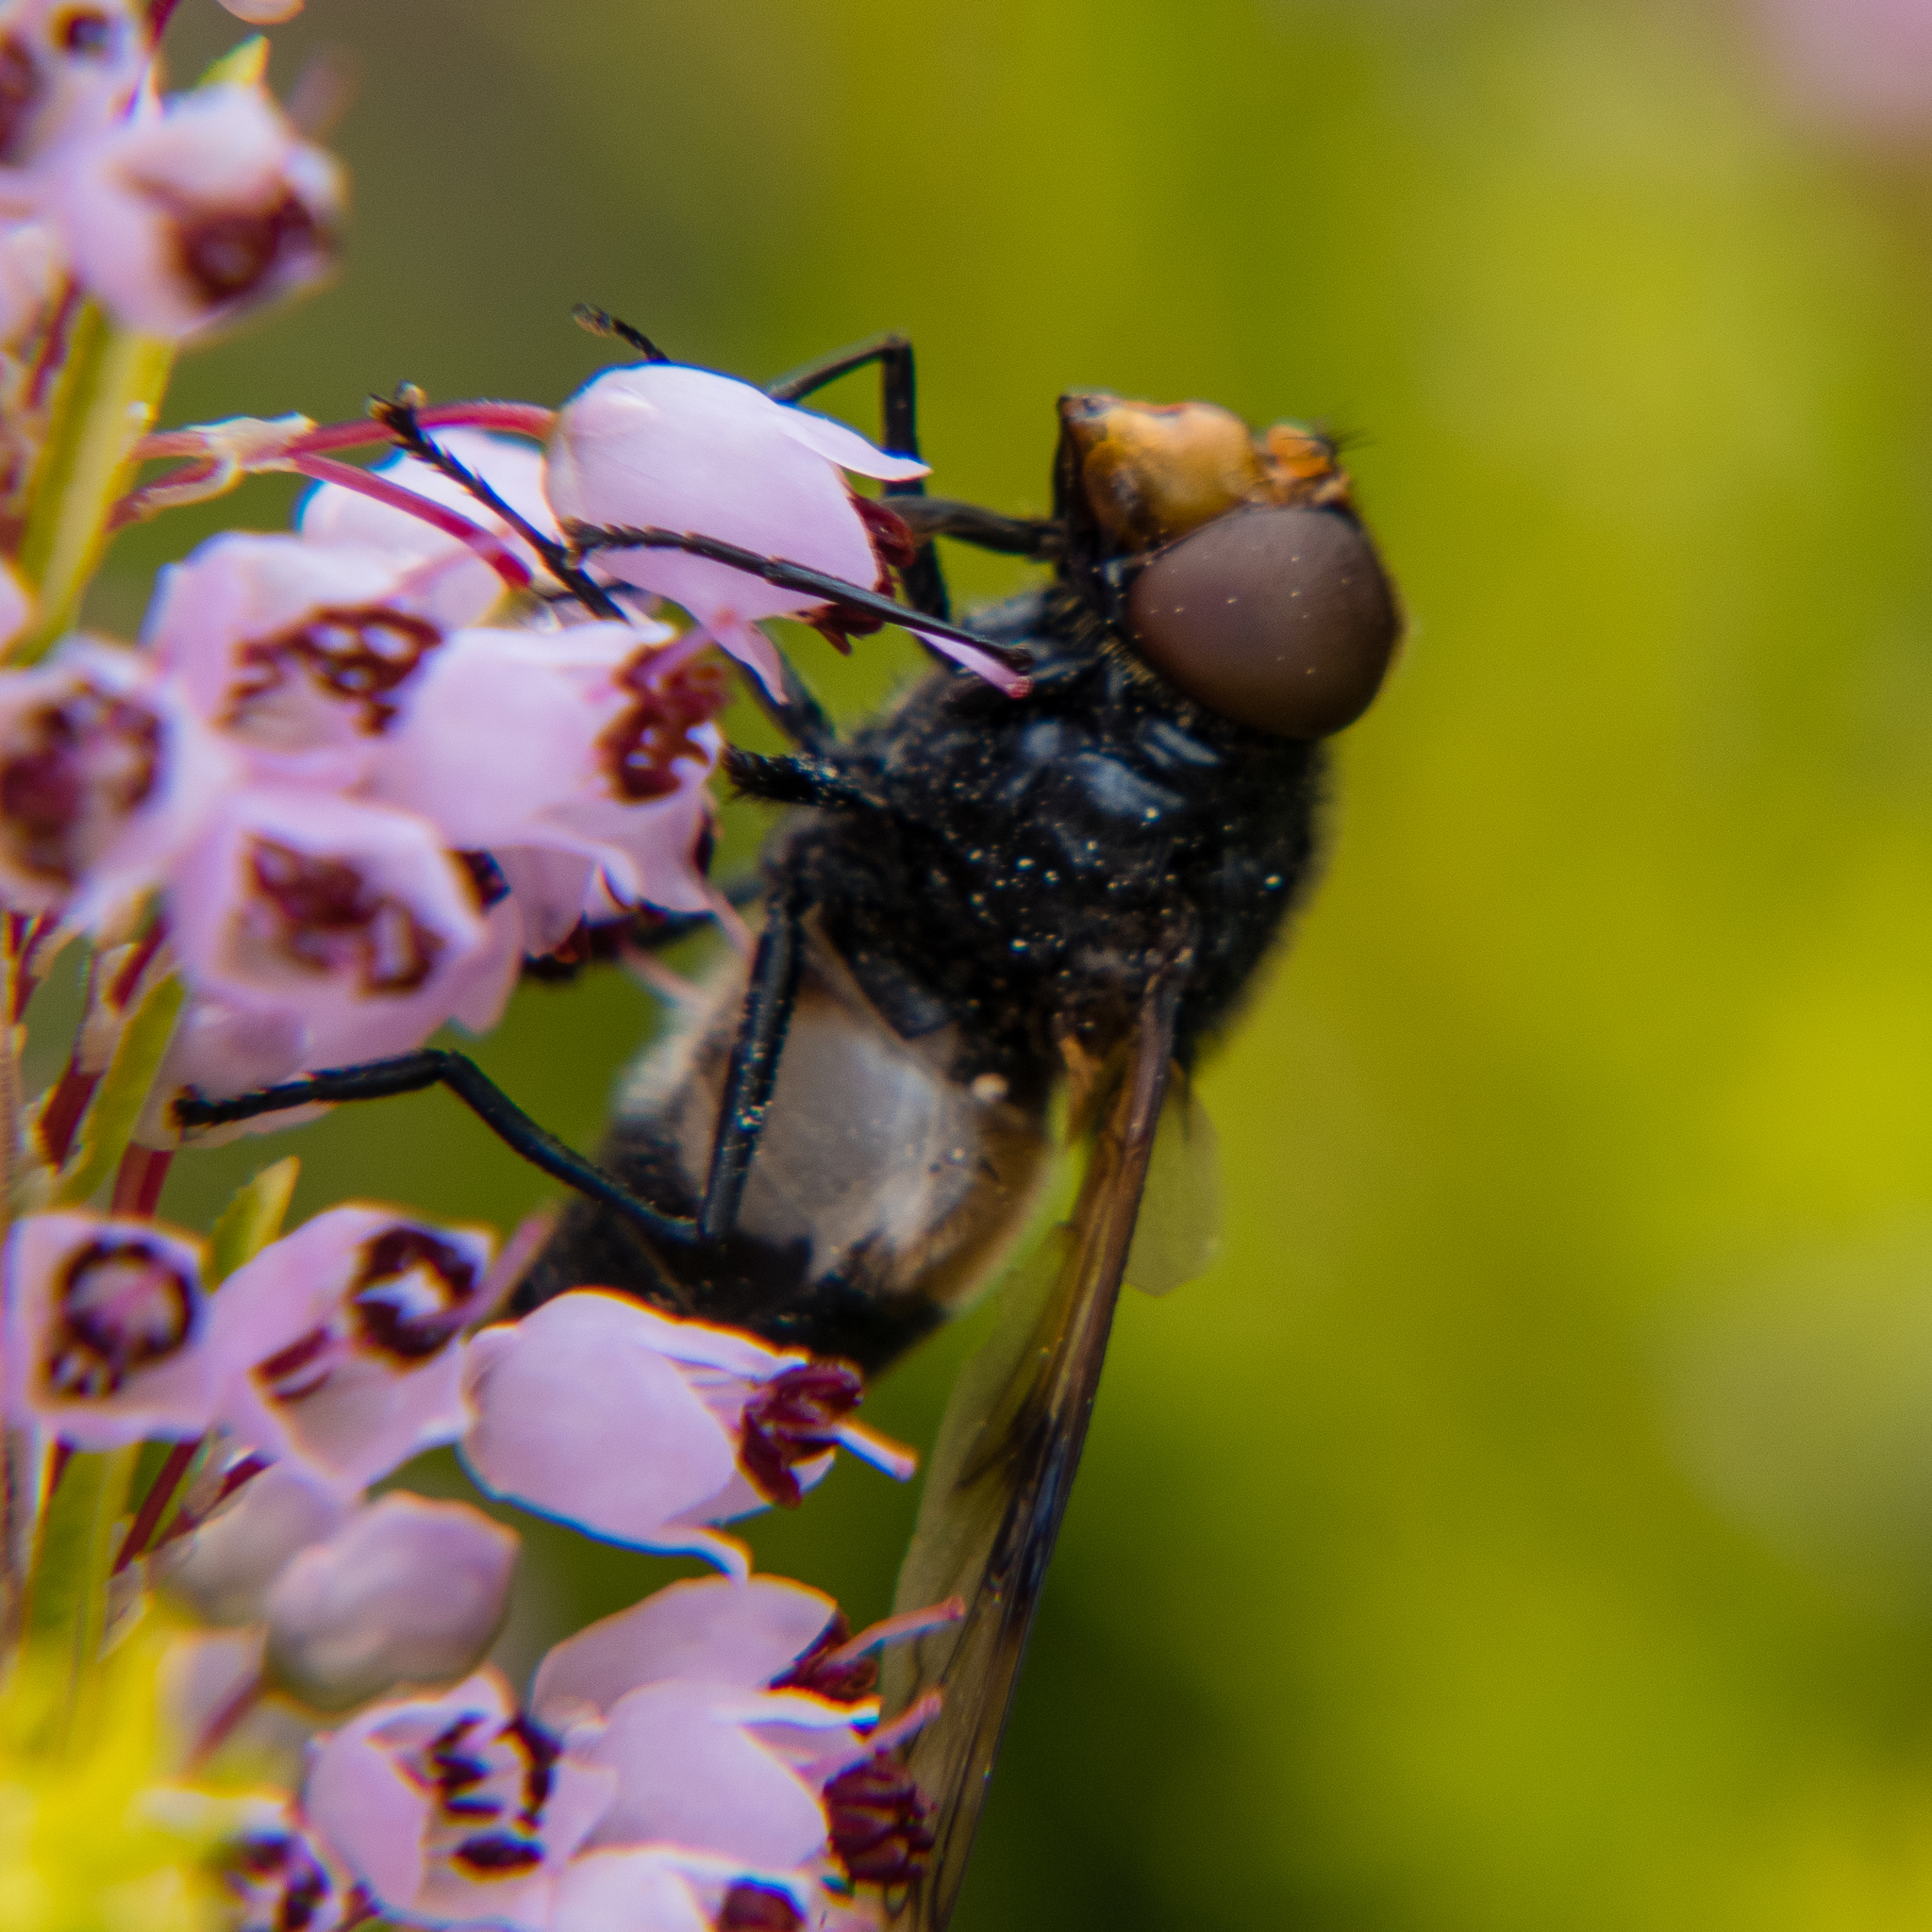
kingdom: Animalia
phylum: Arthropoda
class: Insecta
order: Diptera
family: Syrphidae
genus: Volucella
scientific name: Volucella pellucens
